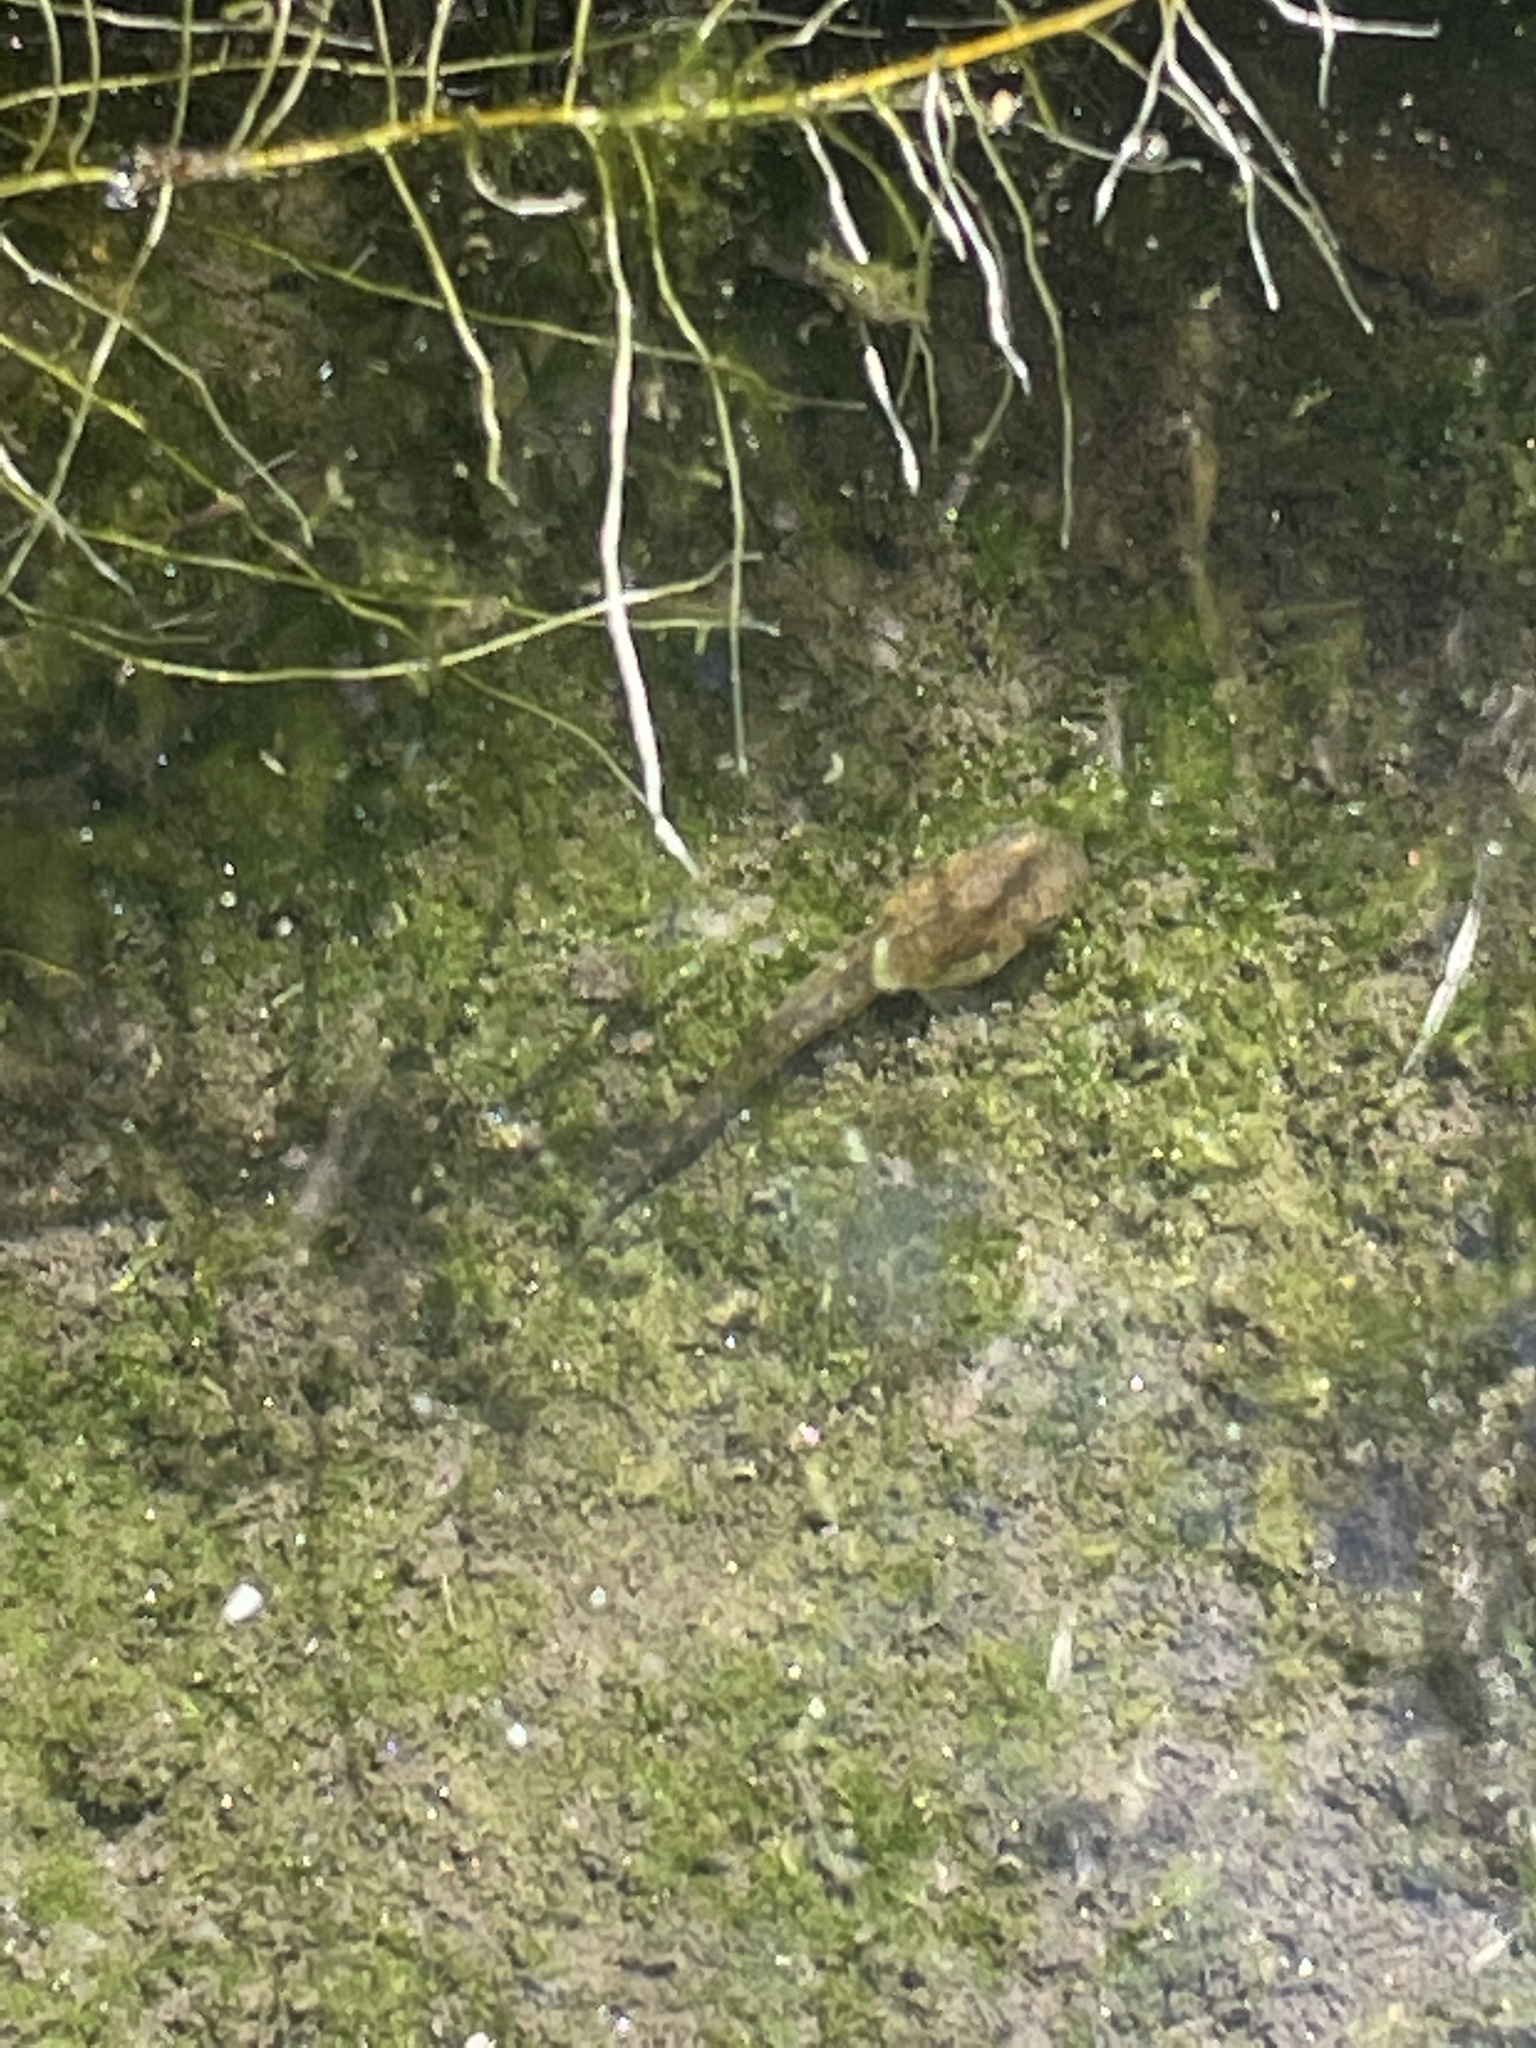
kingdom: Animalia
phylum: Chordata
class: Amphibia
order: Anura
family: Hylidae
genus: Pseudacris
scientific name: Pseudacris regilla
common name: Pacific chorus frog
